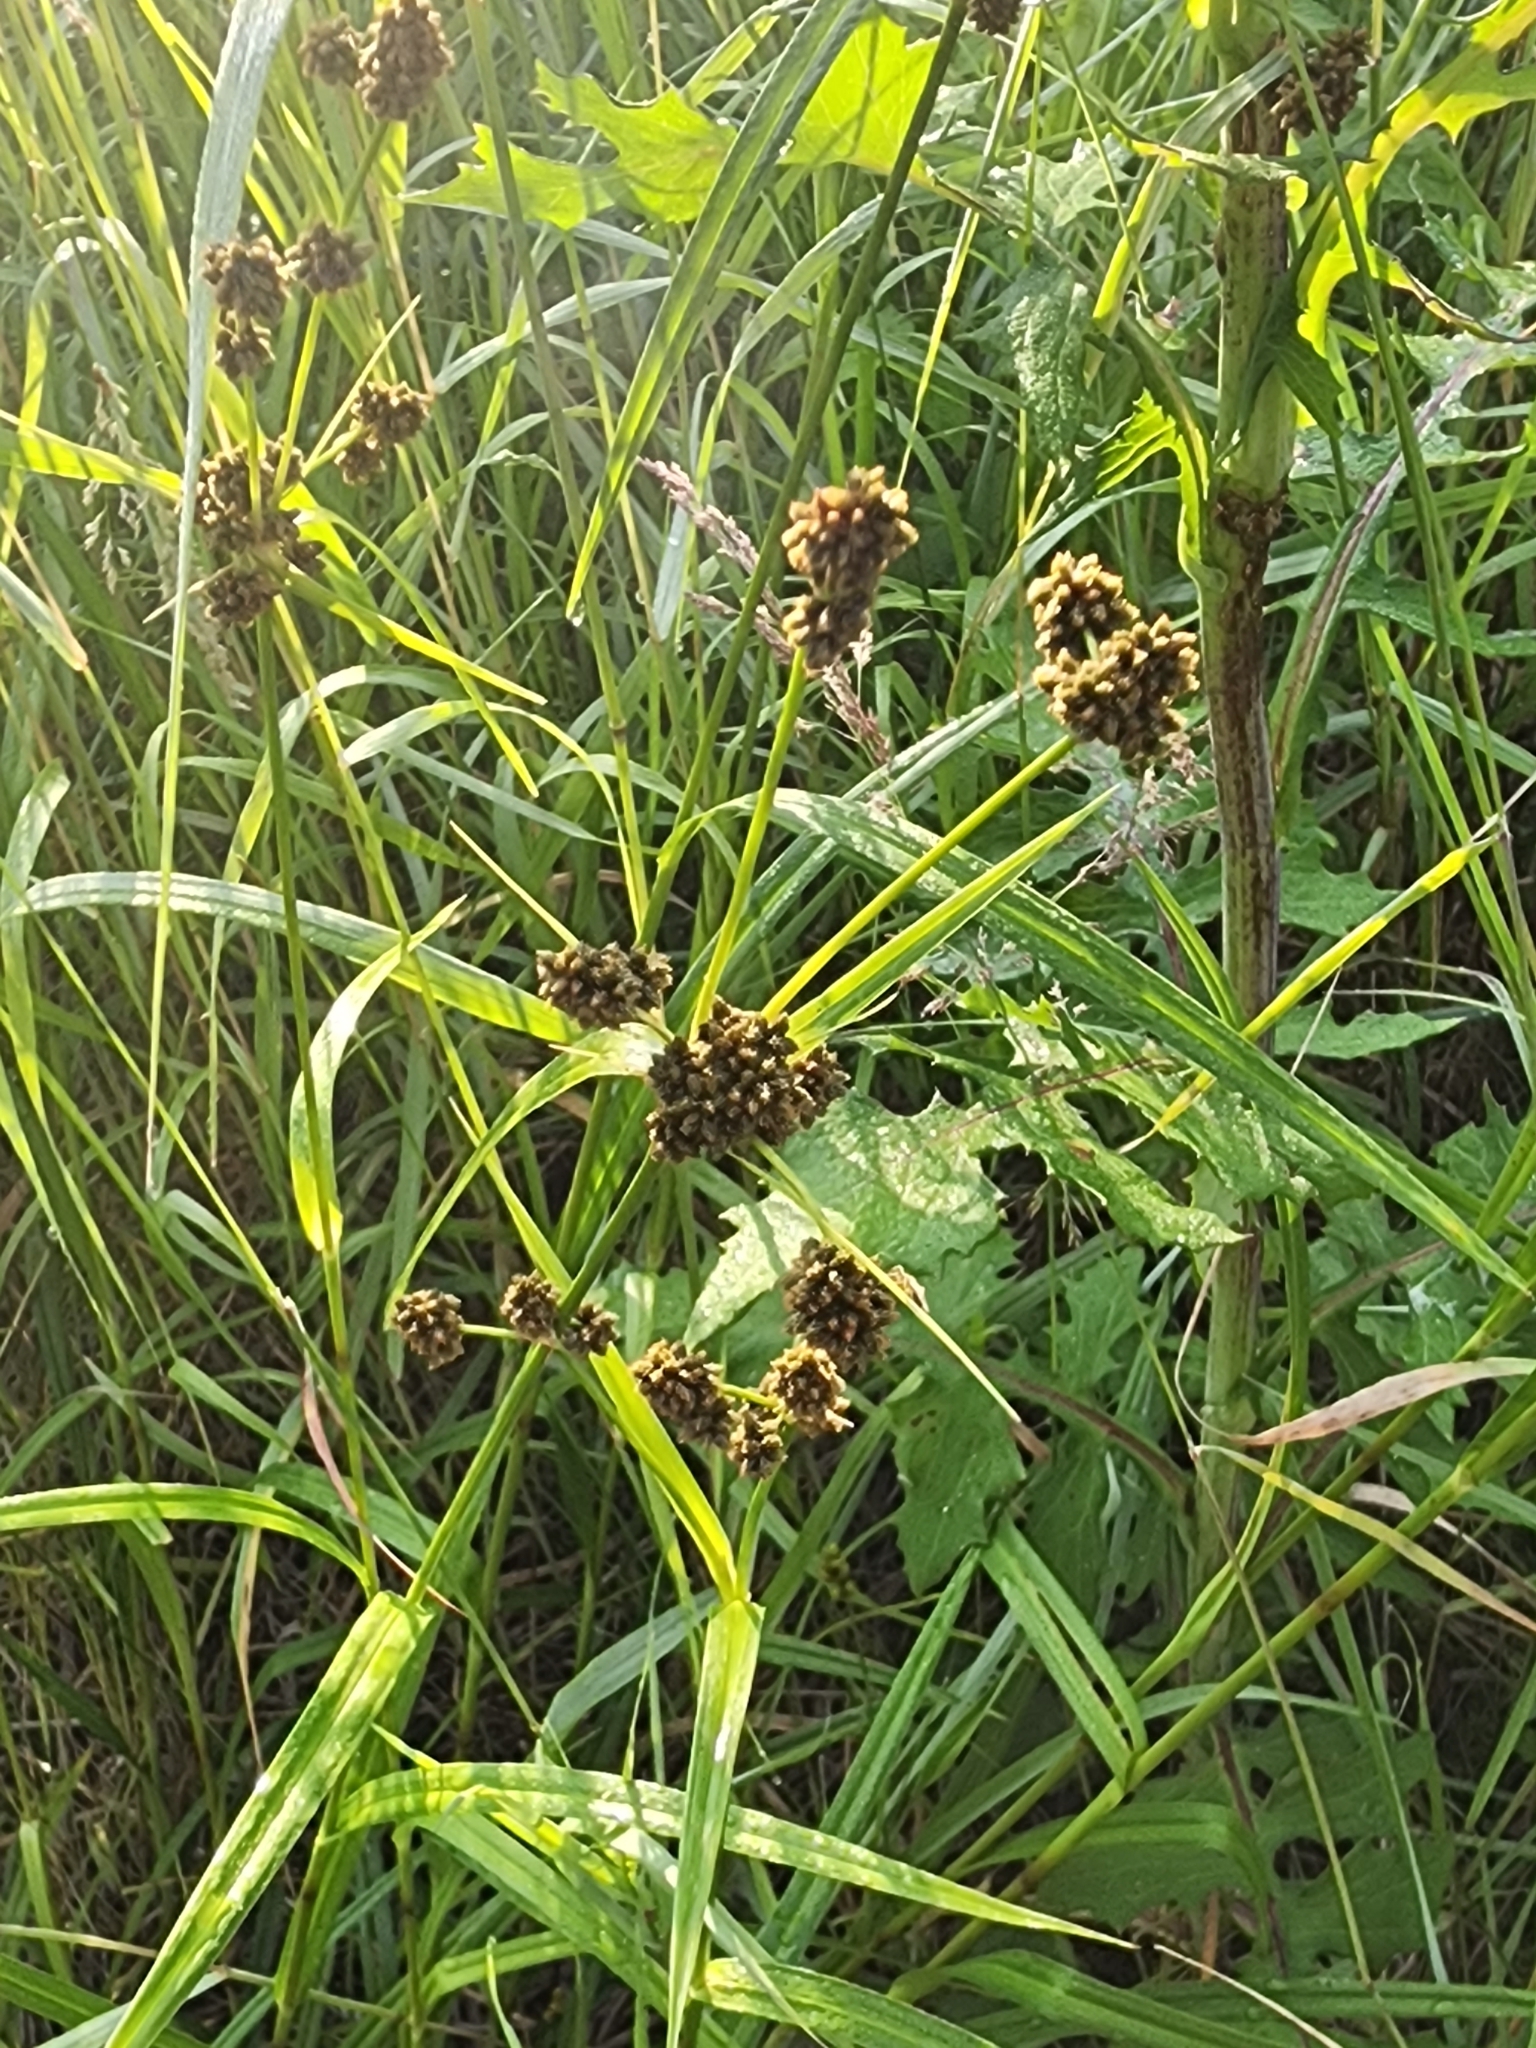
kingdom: Plantae
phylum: Tracheophyta
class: Liliopsida
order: Poales
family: Cyperaceae
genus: Scirpus
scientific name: Scirpus atrovirens
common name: Black bulrush
